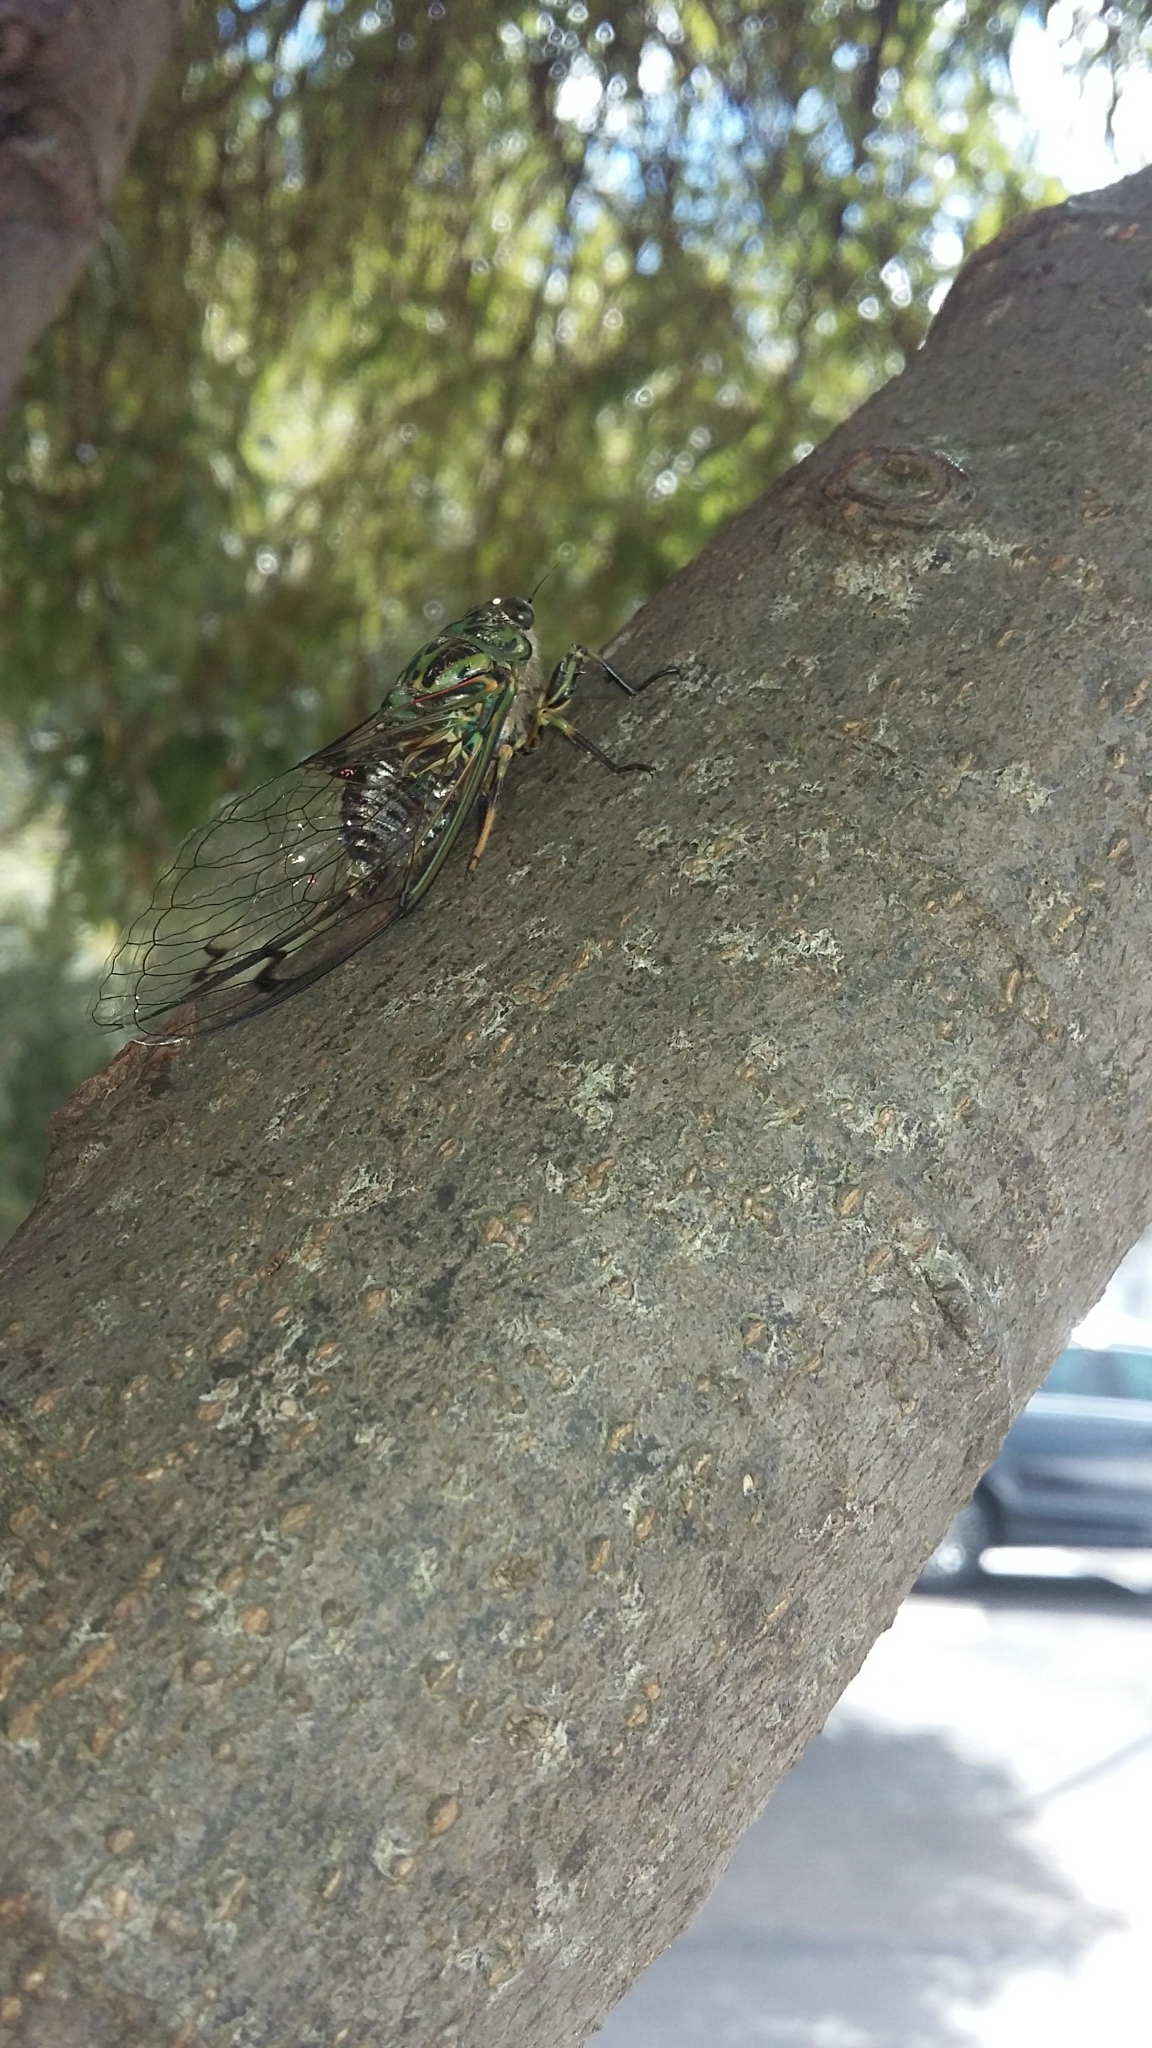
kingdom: Animalia
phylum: Arthropoda
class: Insecta
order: Hemiptera
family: Cicadidae
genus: Amphipsalta
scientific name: Amphipsalta zelandica
